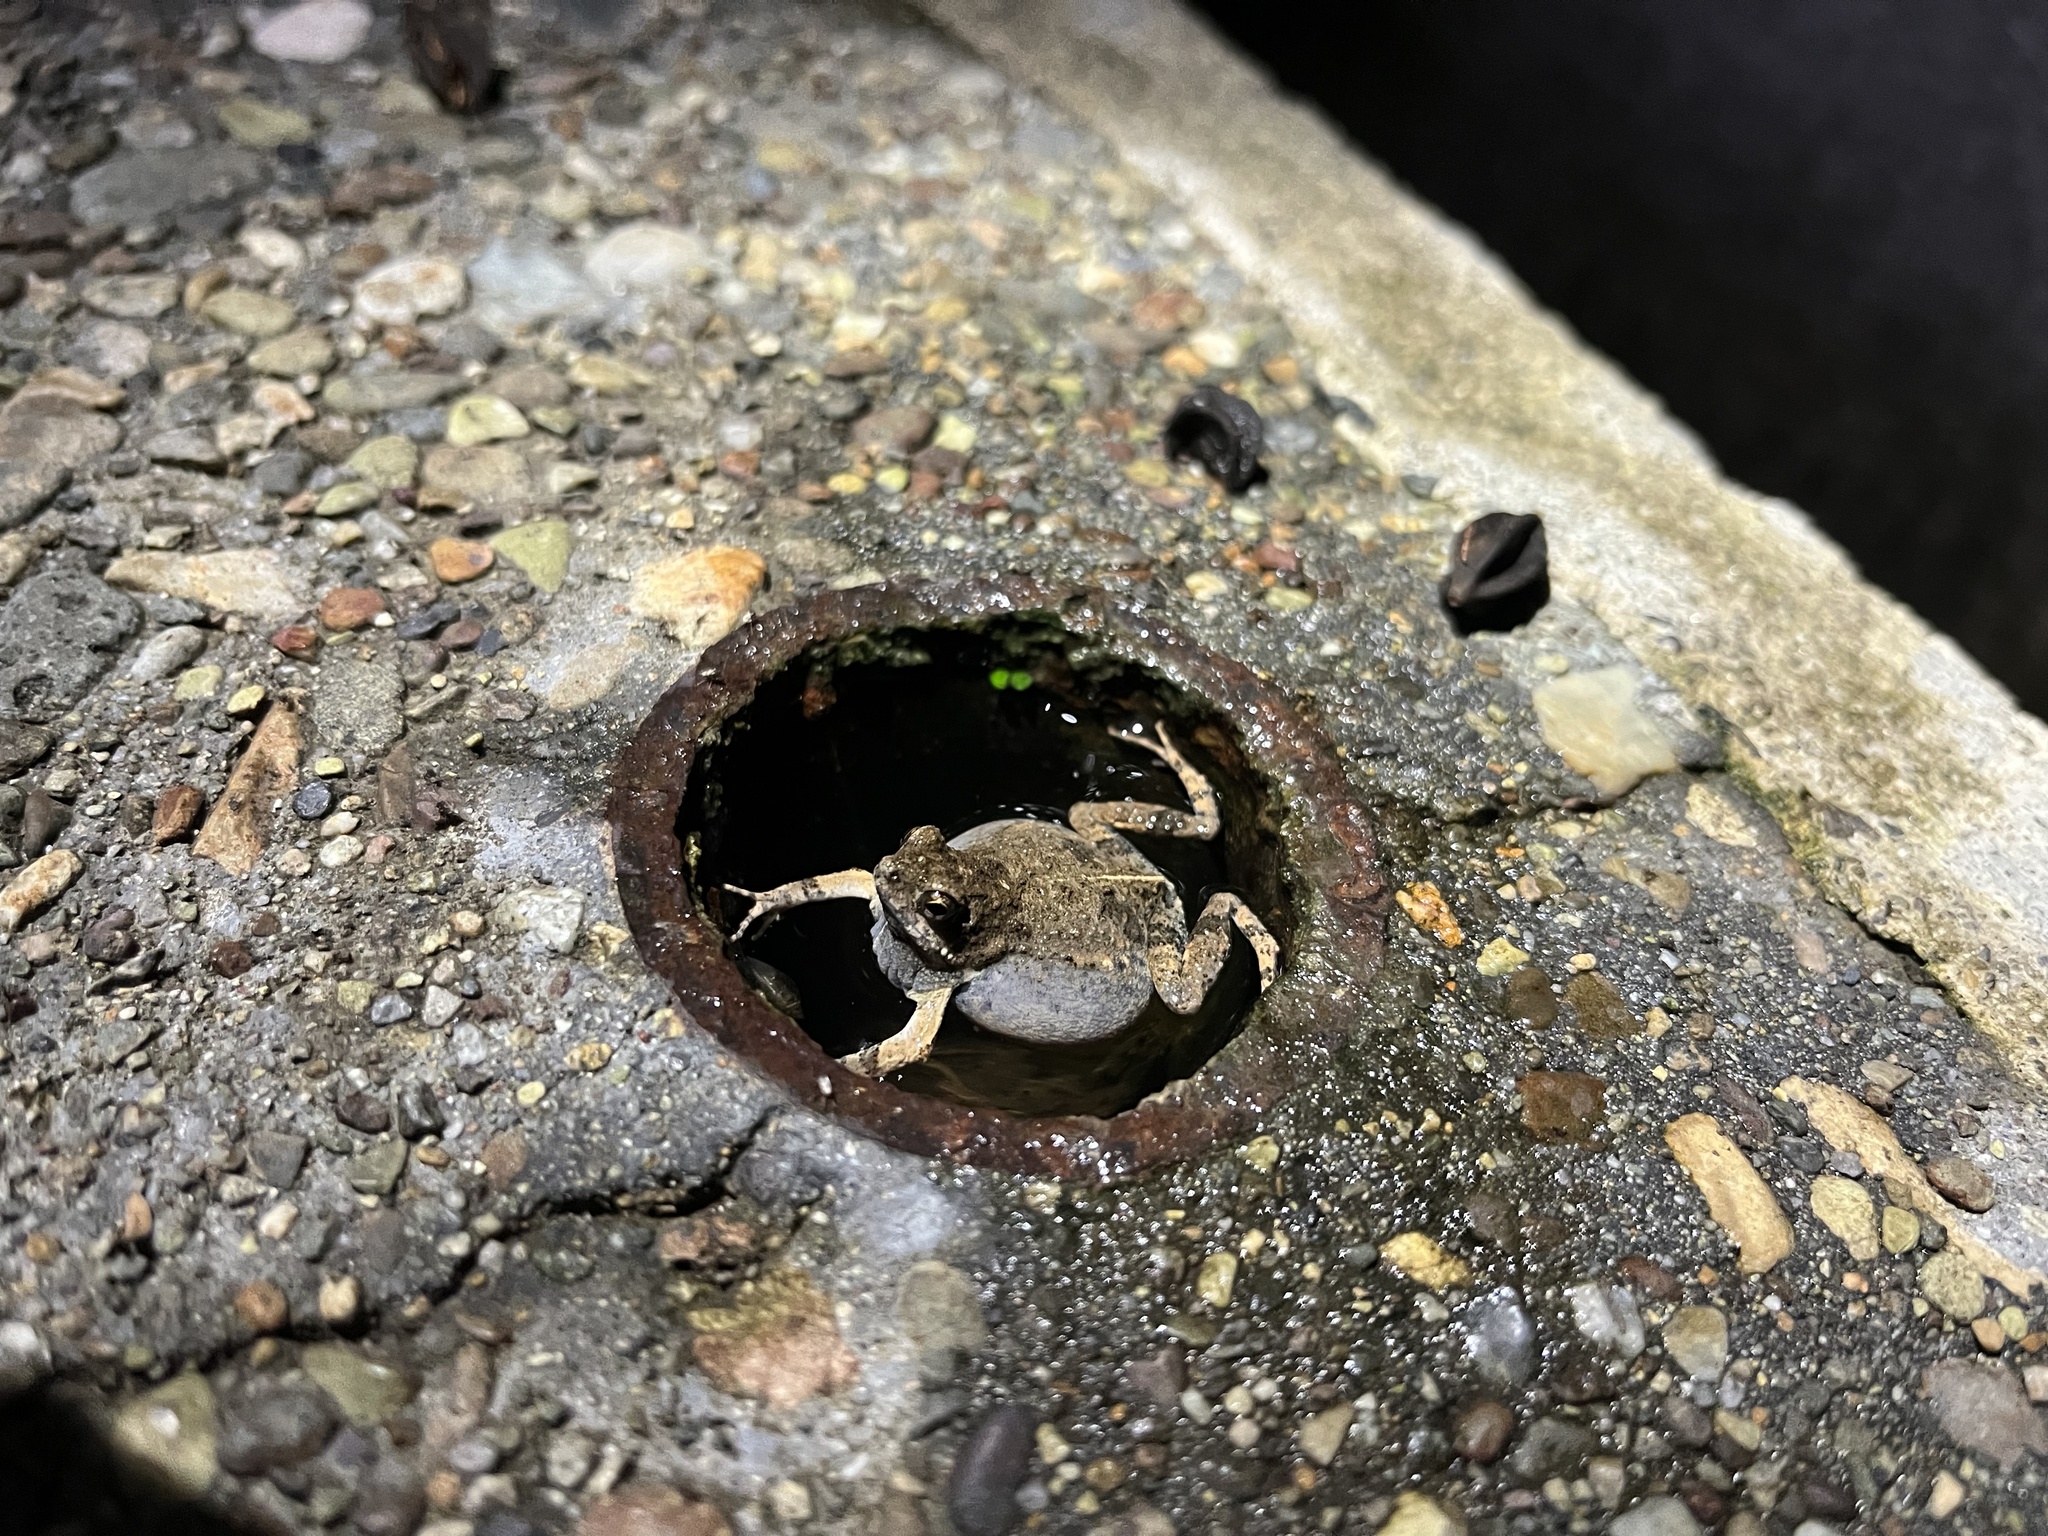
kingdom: Animalia
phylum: Chordata
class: Amphibia
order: Anura
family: Leptodactylidae
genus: Engystomops
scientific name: Engystomops pustulosus
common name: Tungara frog
